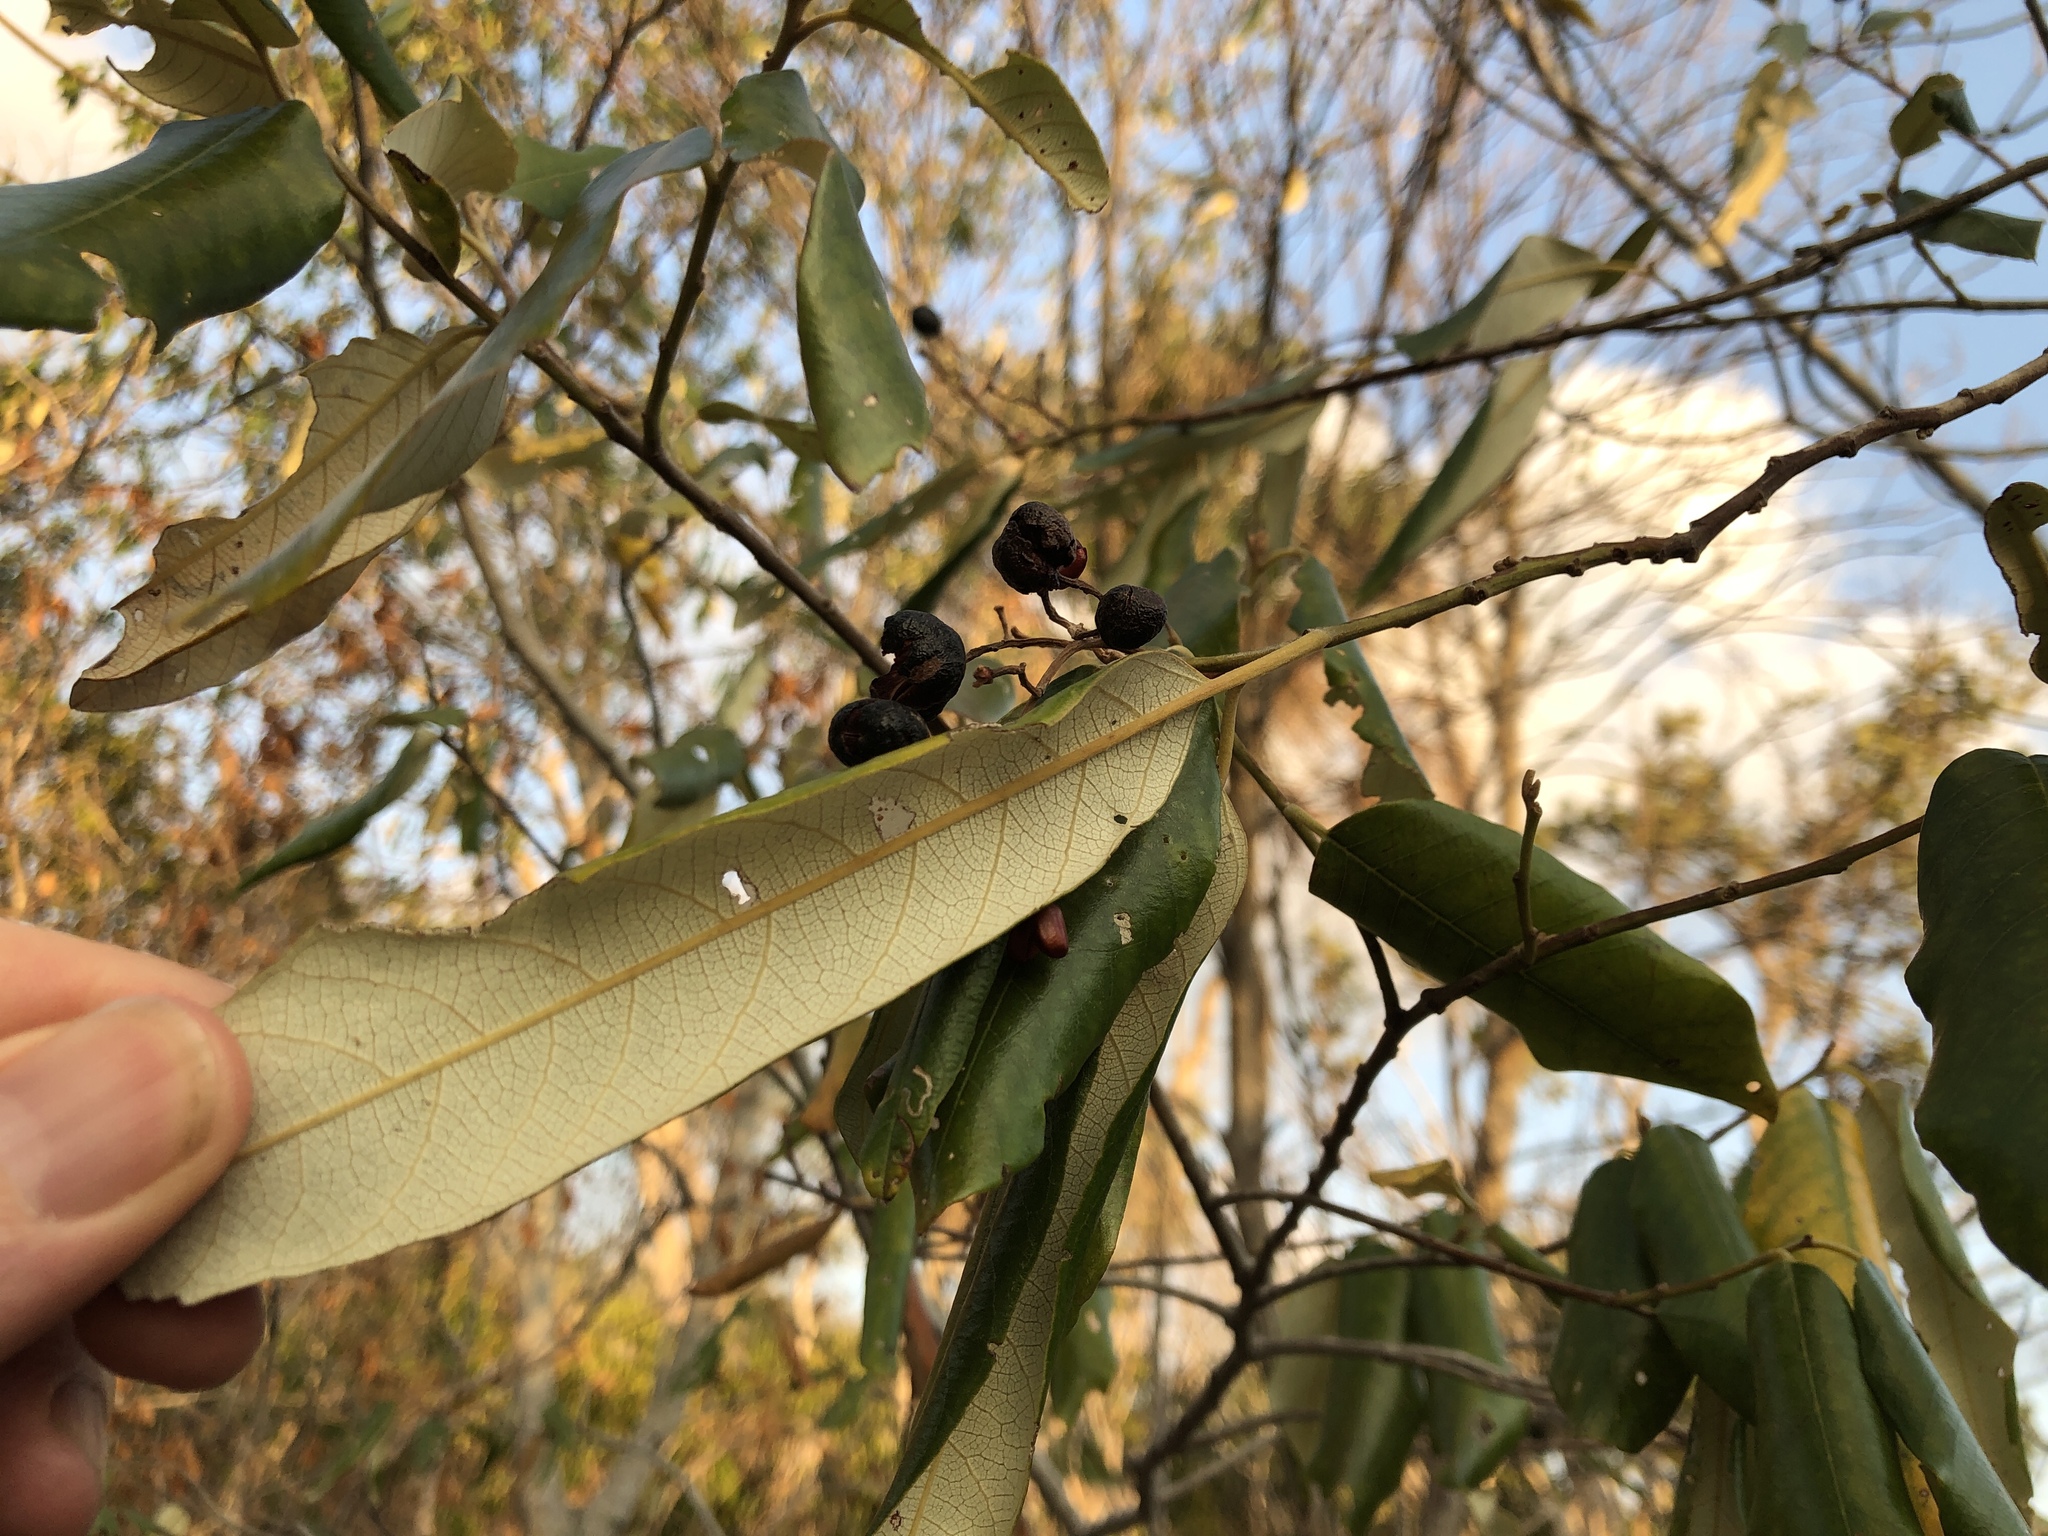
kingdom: Plantae
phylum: Tracheophyta
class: Magnoliopsida
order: Rosales
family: Rhamnaceae
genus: Alphitonia
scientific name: Alphitonia excelsa
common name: Red ash
